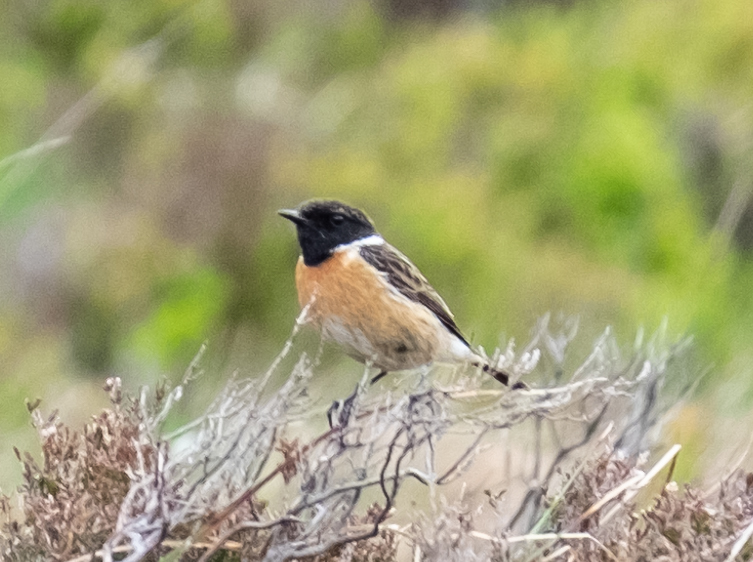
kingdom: Animalia
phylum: Chordata
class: Aves
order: Passeriformes
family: Muscicapidae
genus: Saxicola
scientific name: Saxicola rubicola
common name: European stonechat
